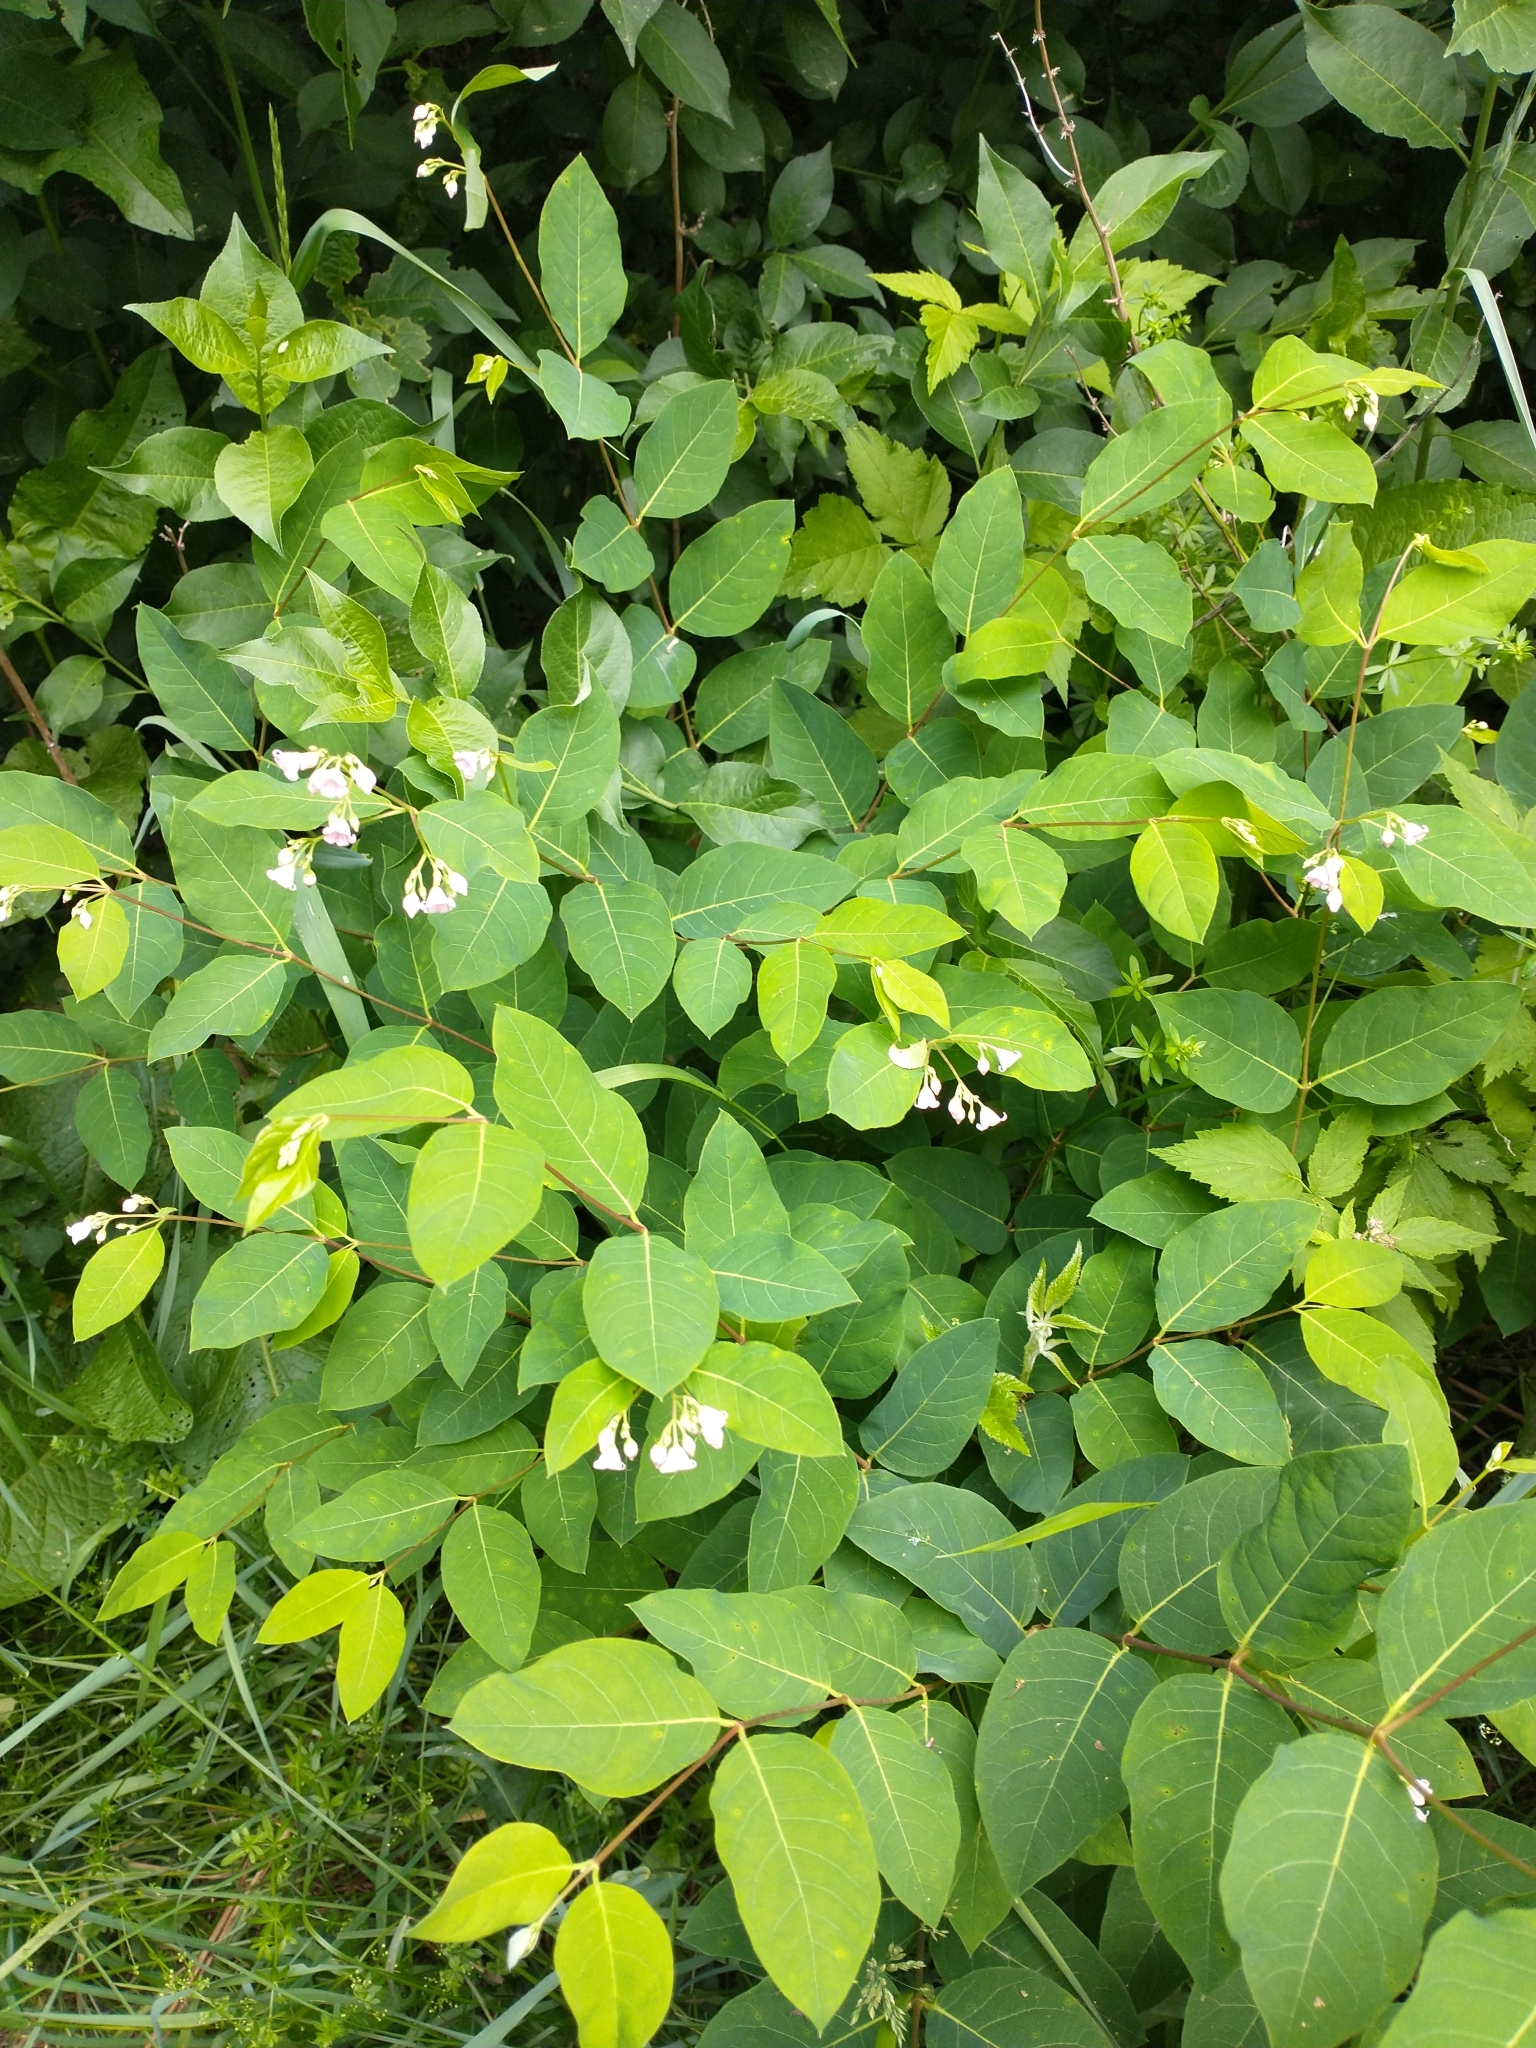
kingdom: Plantae
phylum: Tracheophyta
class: Magnoliopsida
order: Gentianales
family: Apocynaceae
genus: Apocynum
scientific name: Apocynum androsaemifolium
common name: Spreading dogbane
